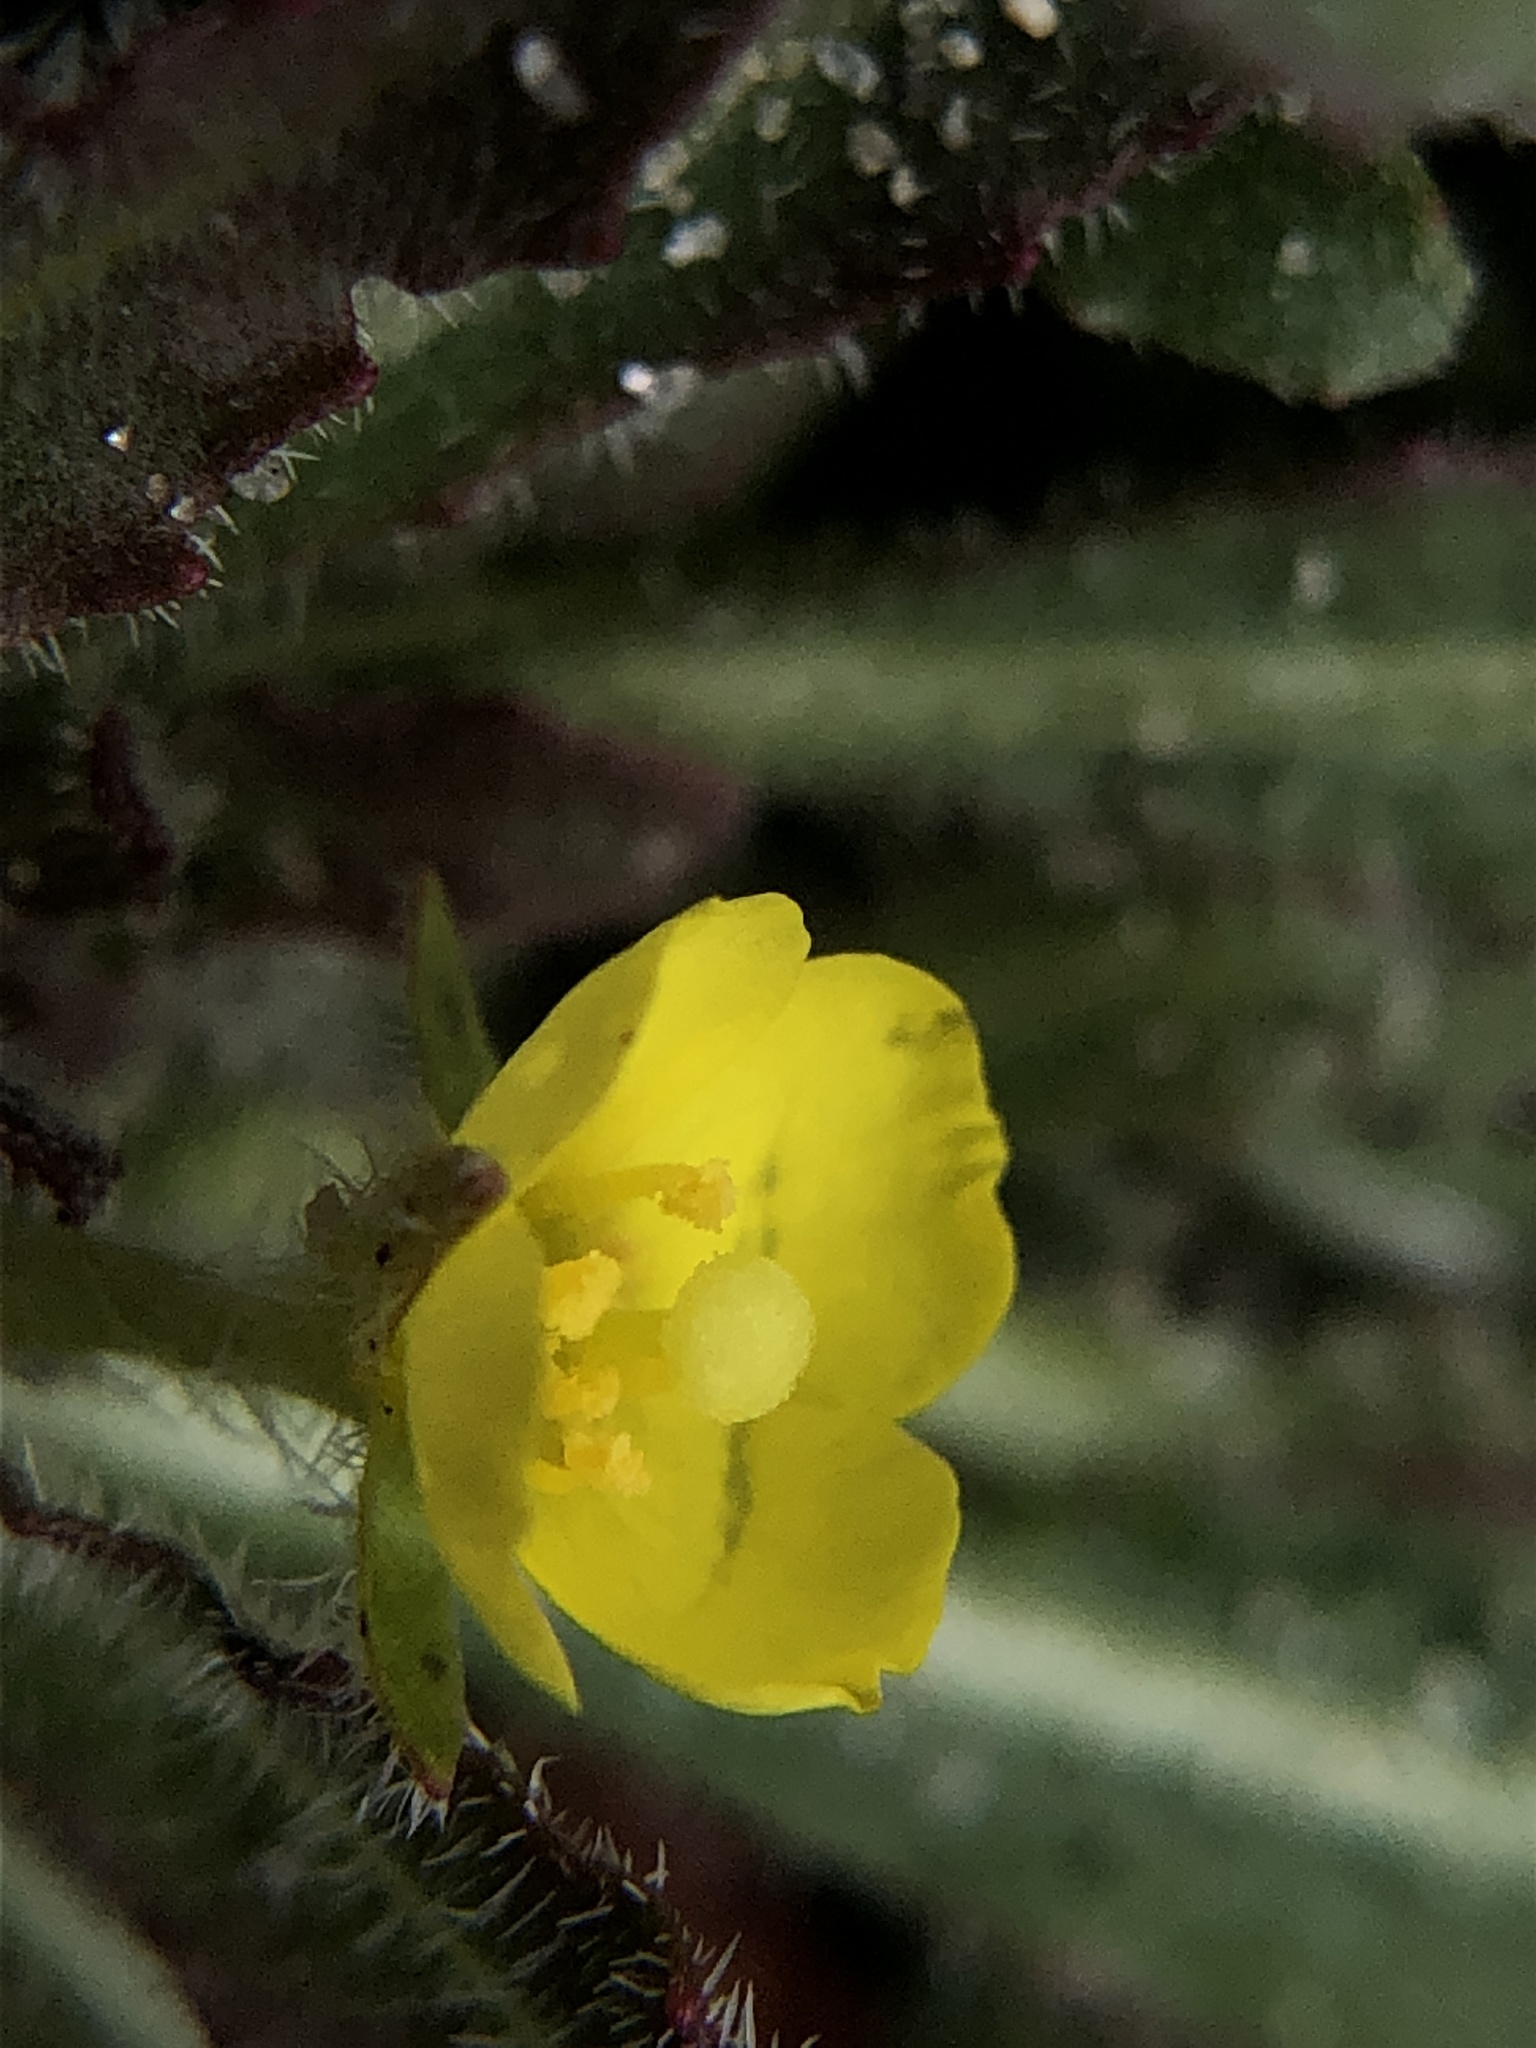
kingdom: Plantae
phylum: Tracheophyta
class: Magnoliopsida
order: Myrtales
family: Onagraceae
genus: Camissoniopsis
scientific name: Camissoniopsis micrantha
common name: Miniature suncup
